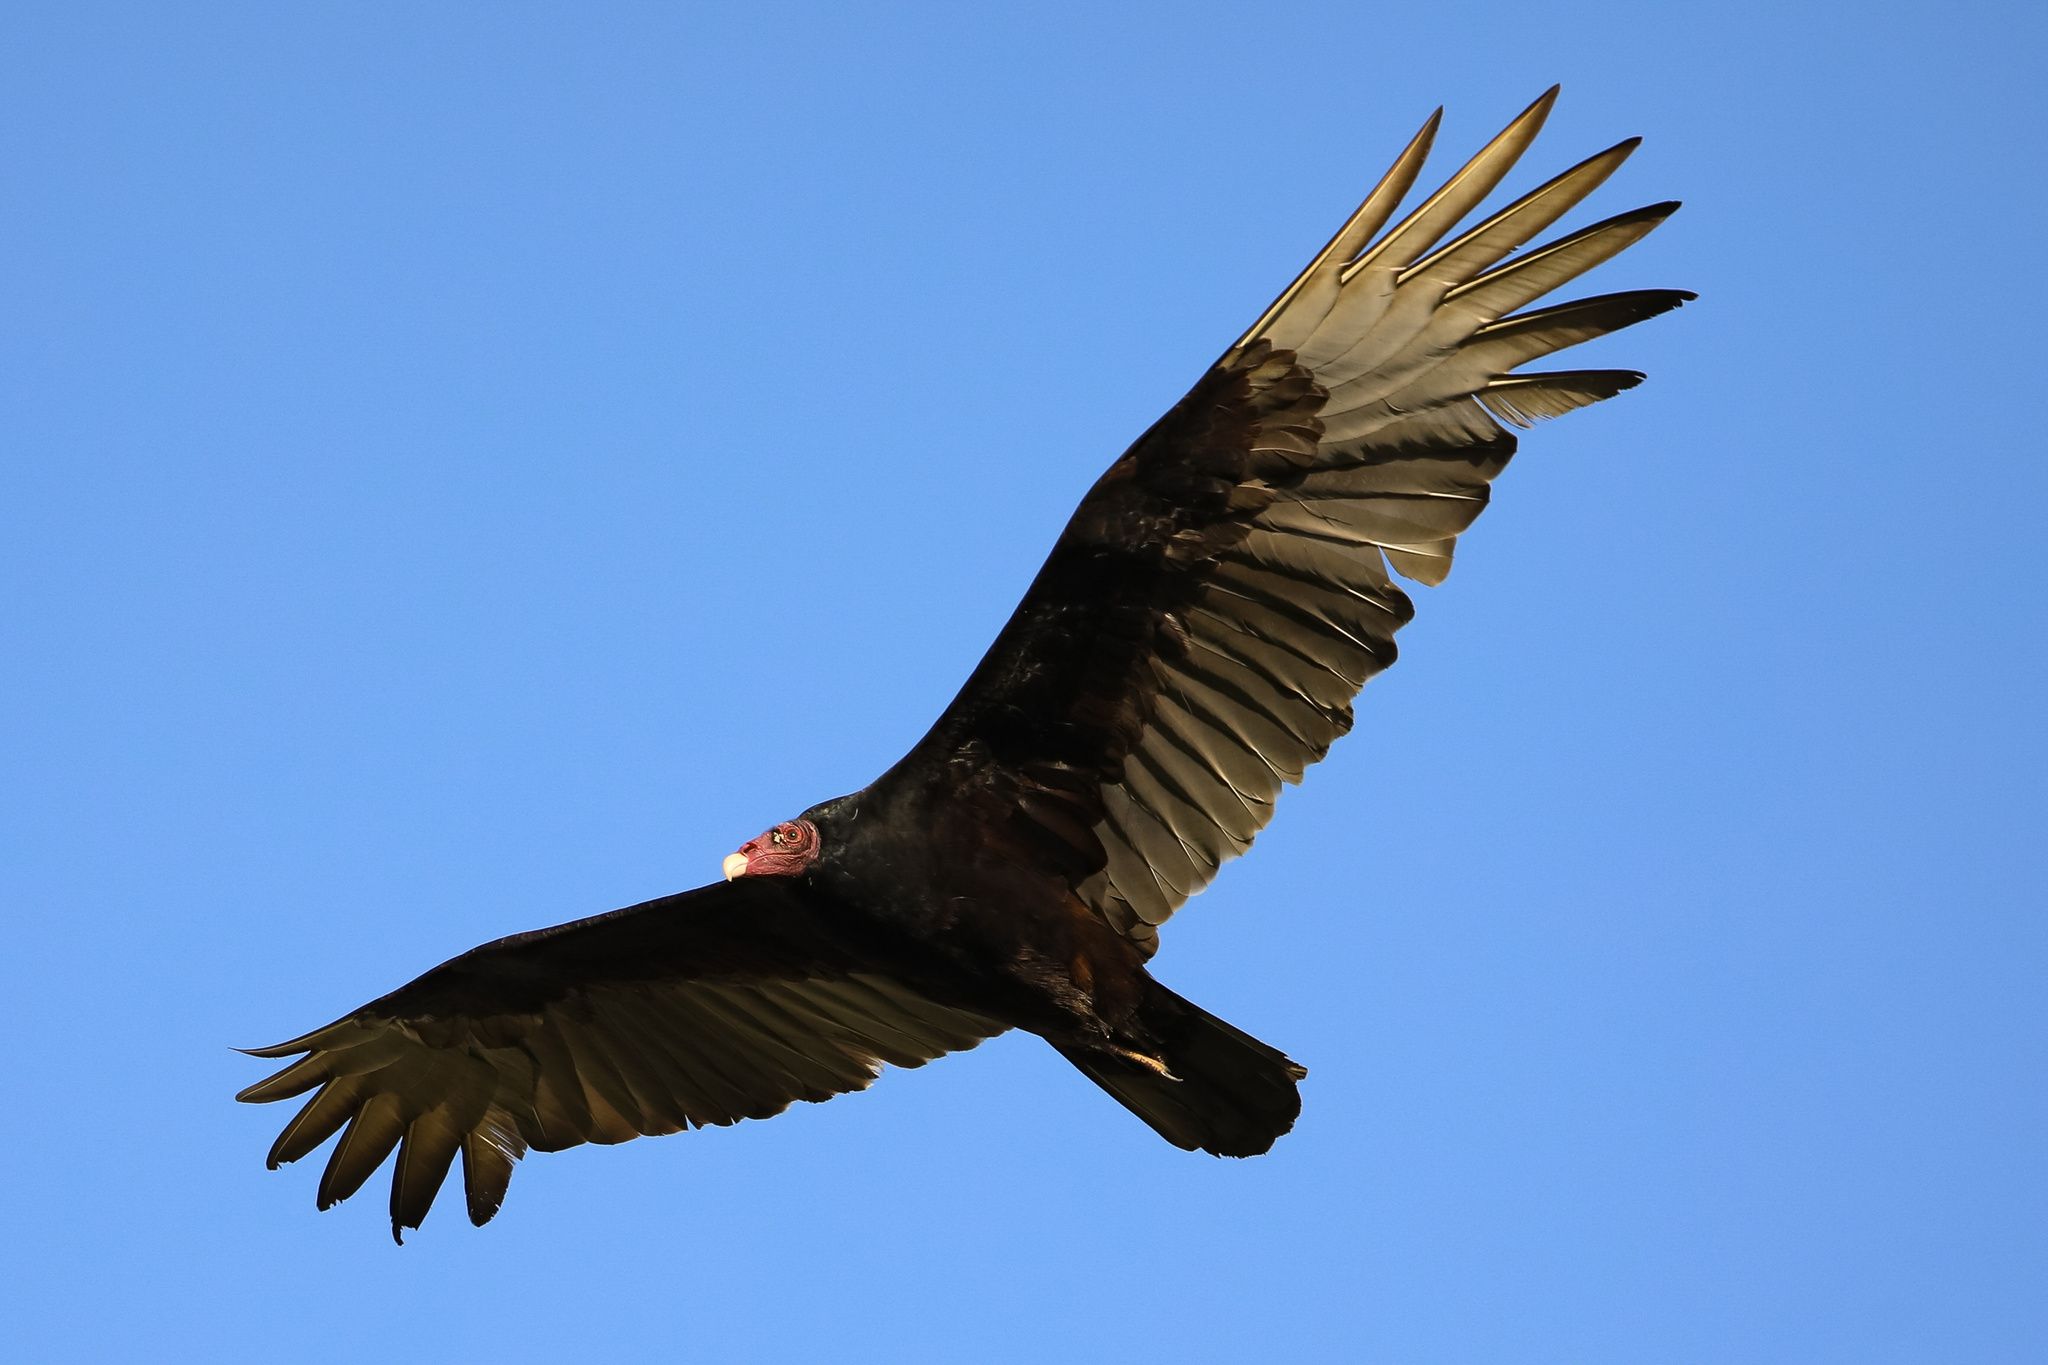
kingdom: Animalia
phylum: Chordata
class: Aves
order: Accipitriformes
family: Cathartidae
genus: Cathartes
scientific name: Cathartes aura
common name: Turkey vulture
